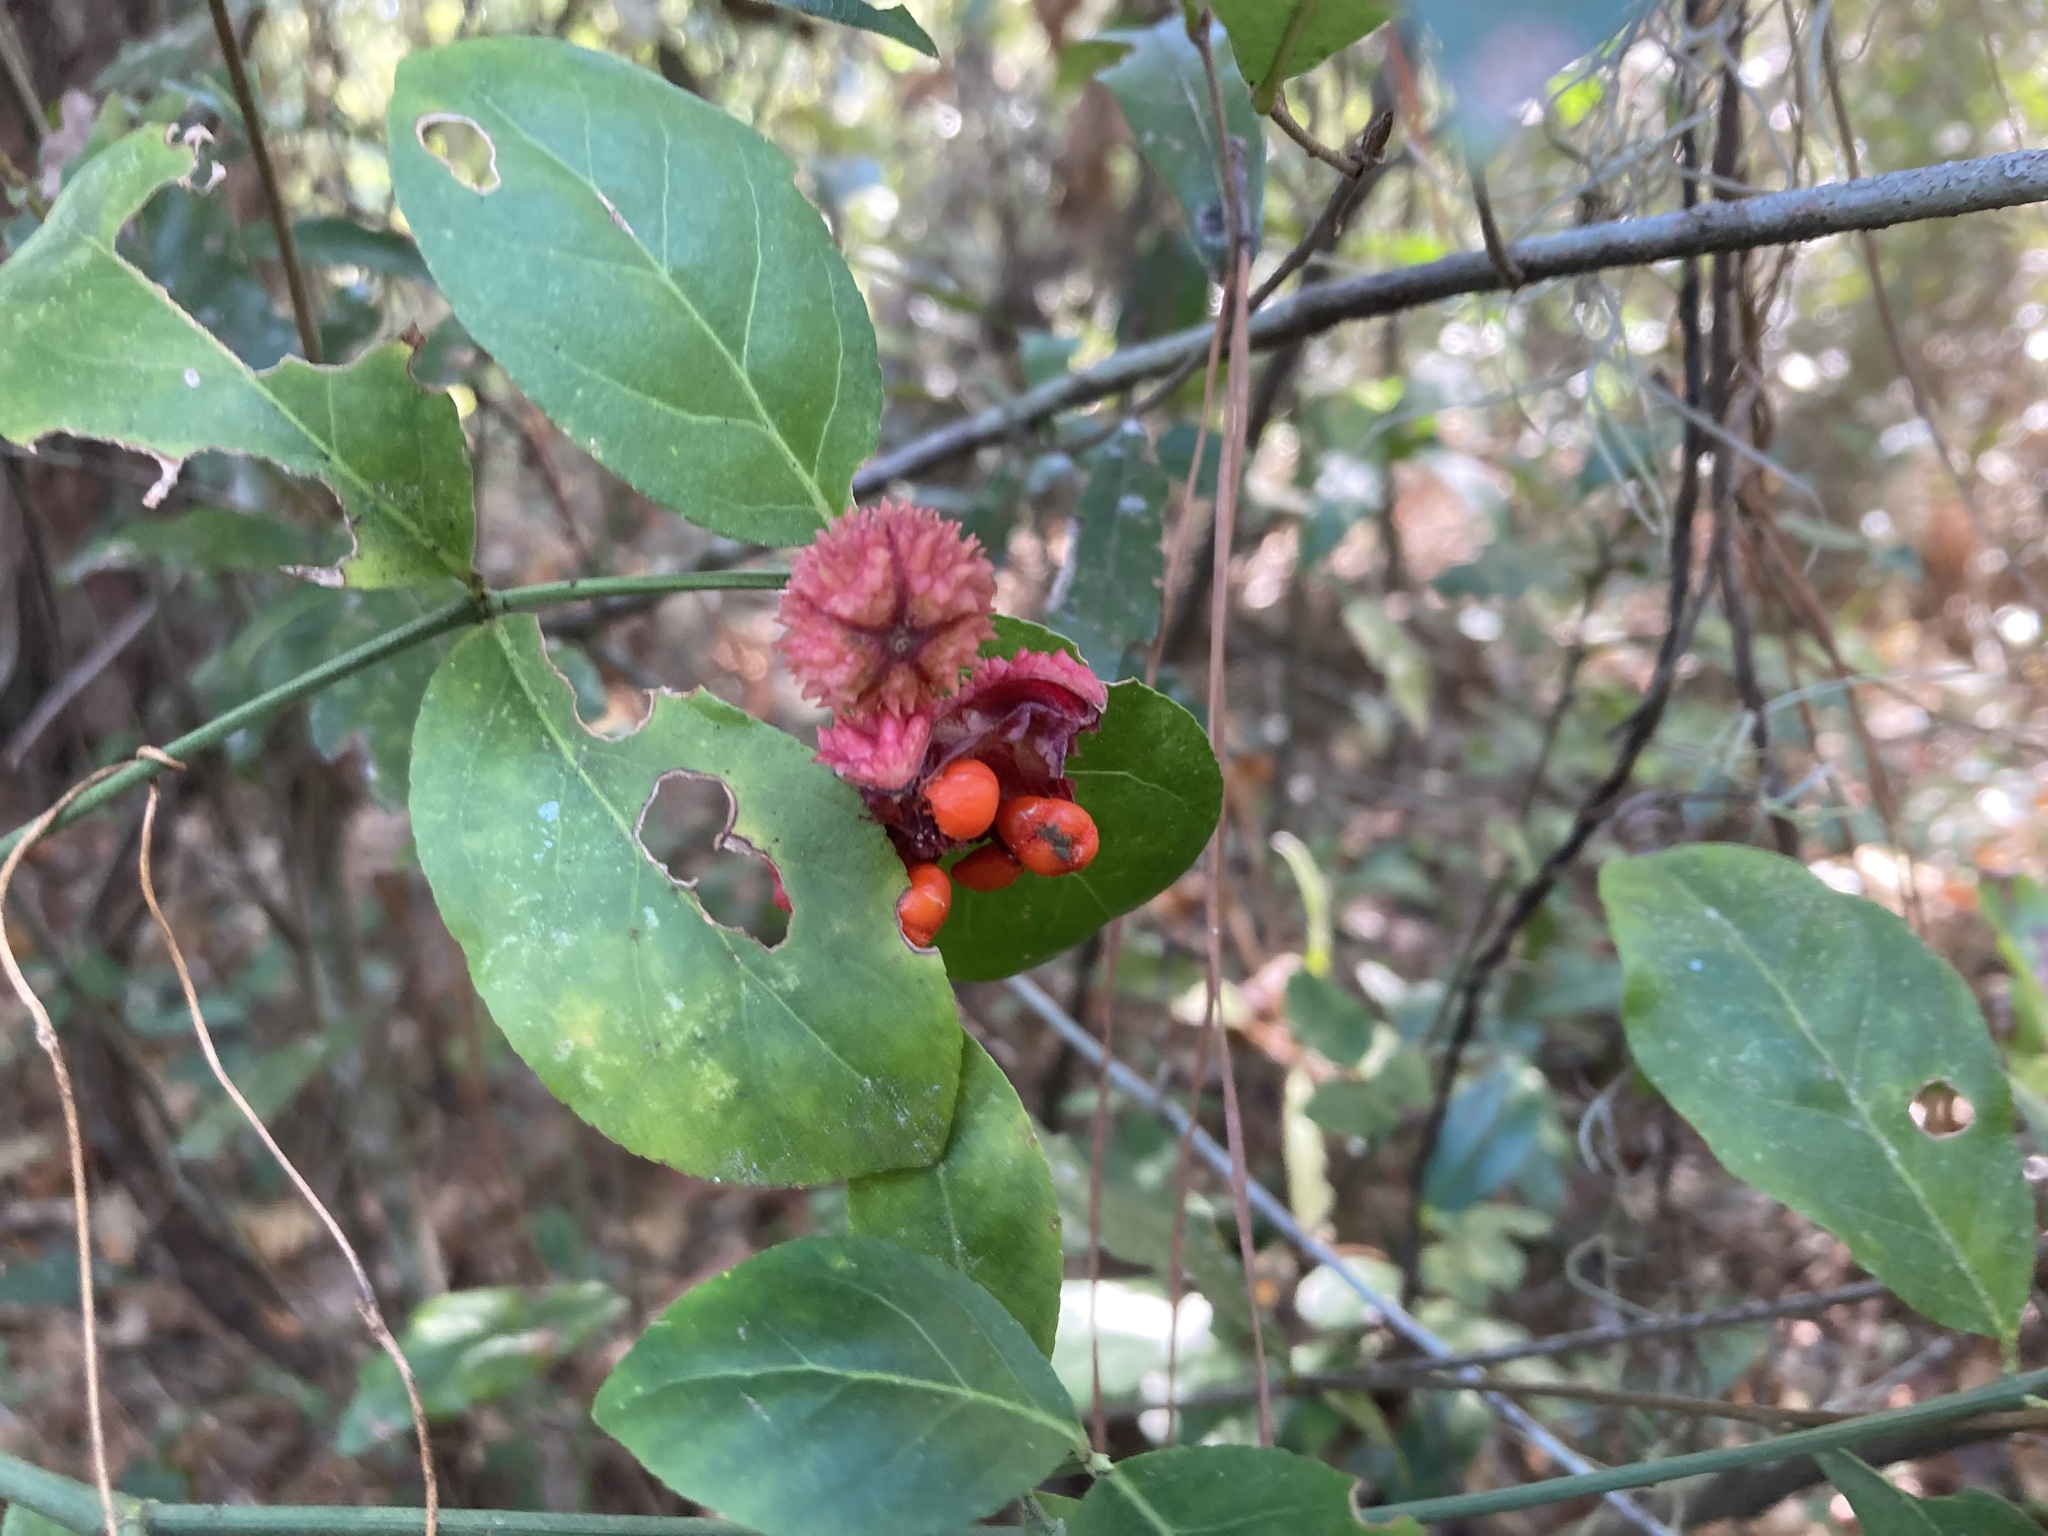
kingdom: Plantae
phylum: Tracheophyta
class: Magnoliopsida
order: Celastrales
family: Celastraceae
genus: Euonymus
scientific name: Euonymus americanus
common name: Bursting-heart
